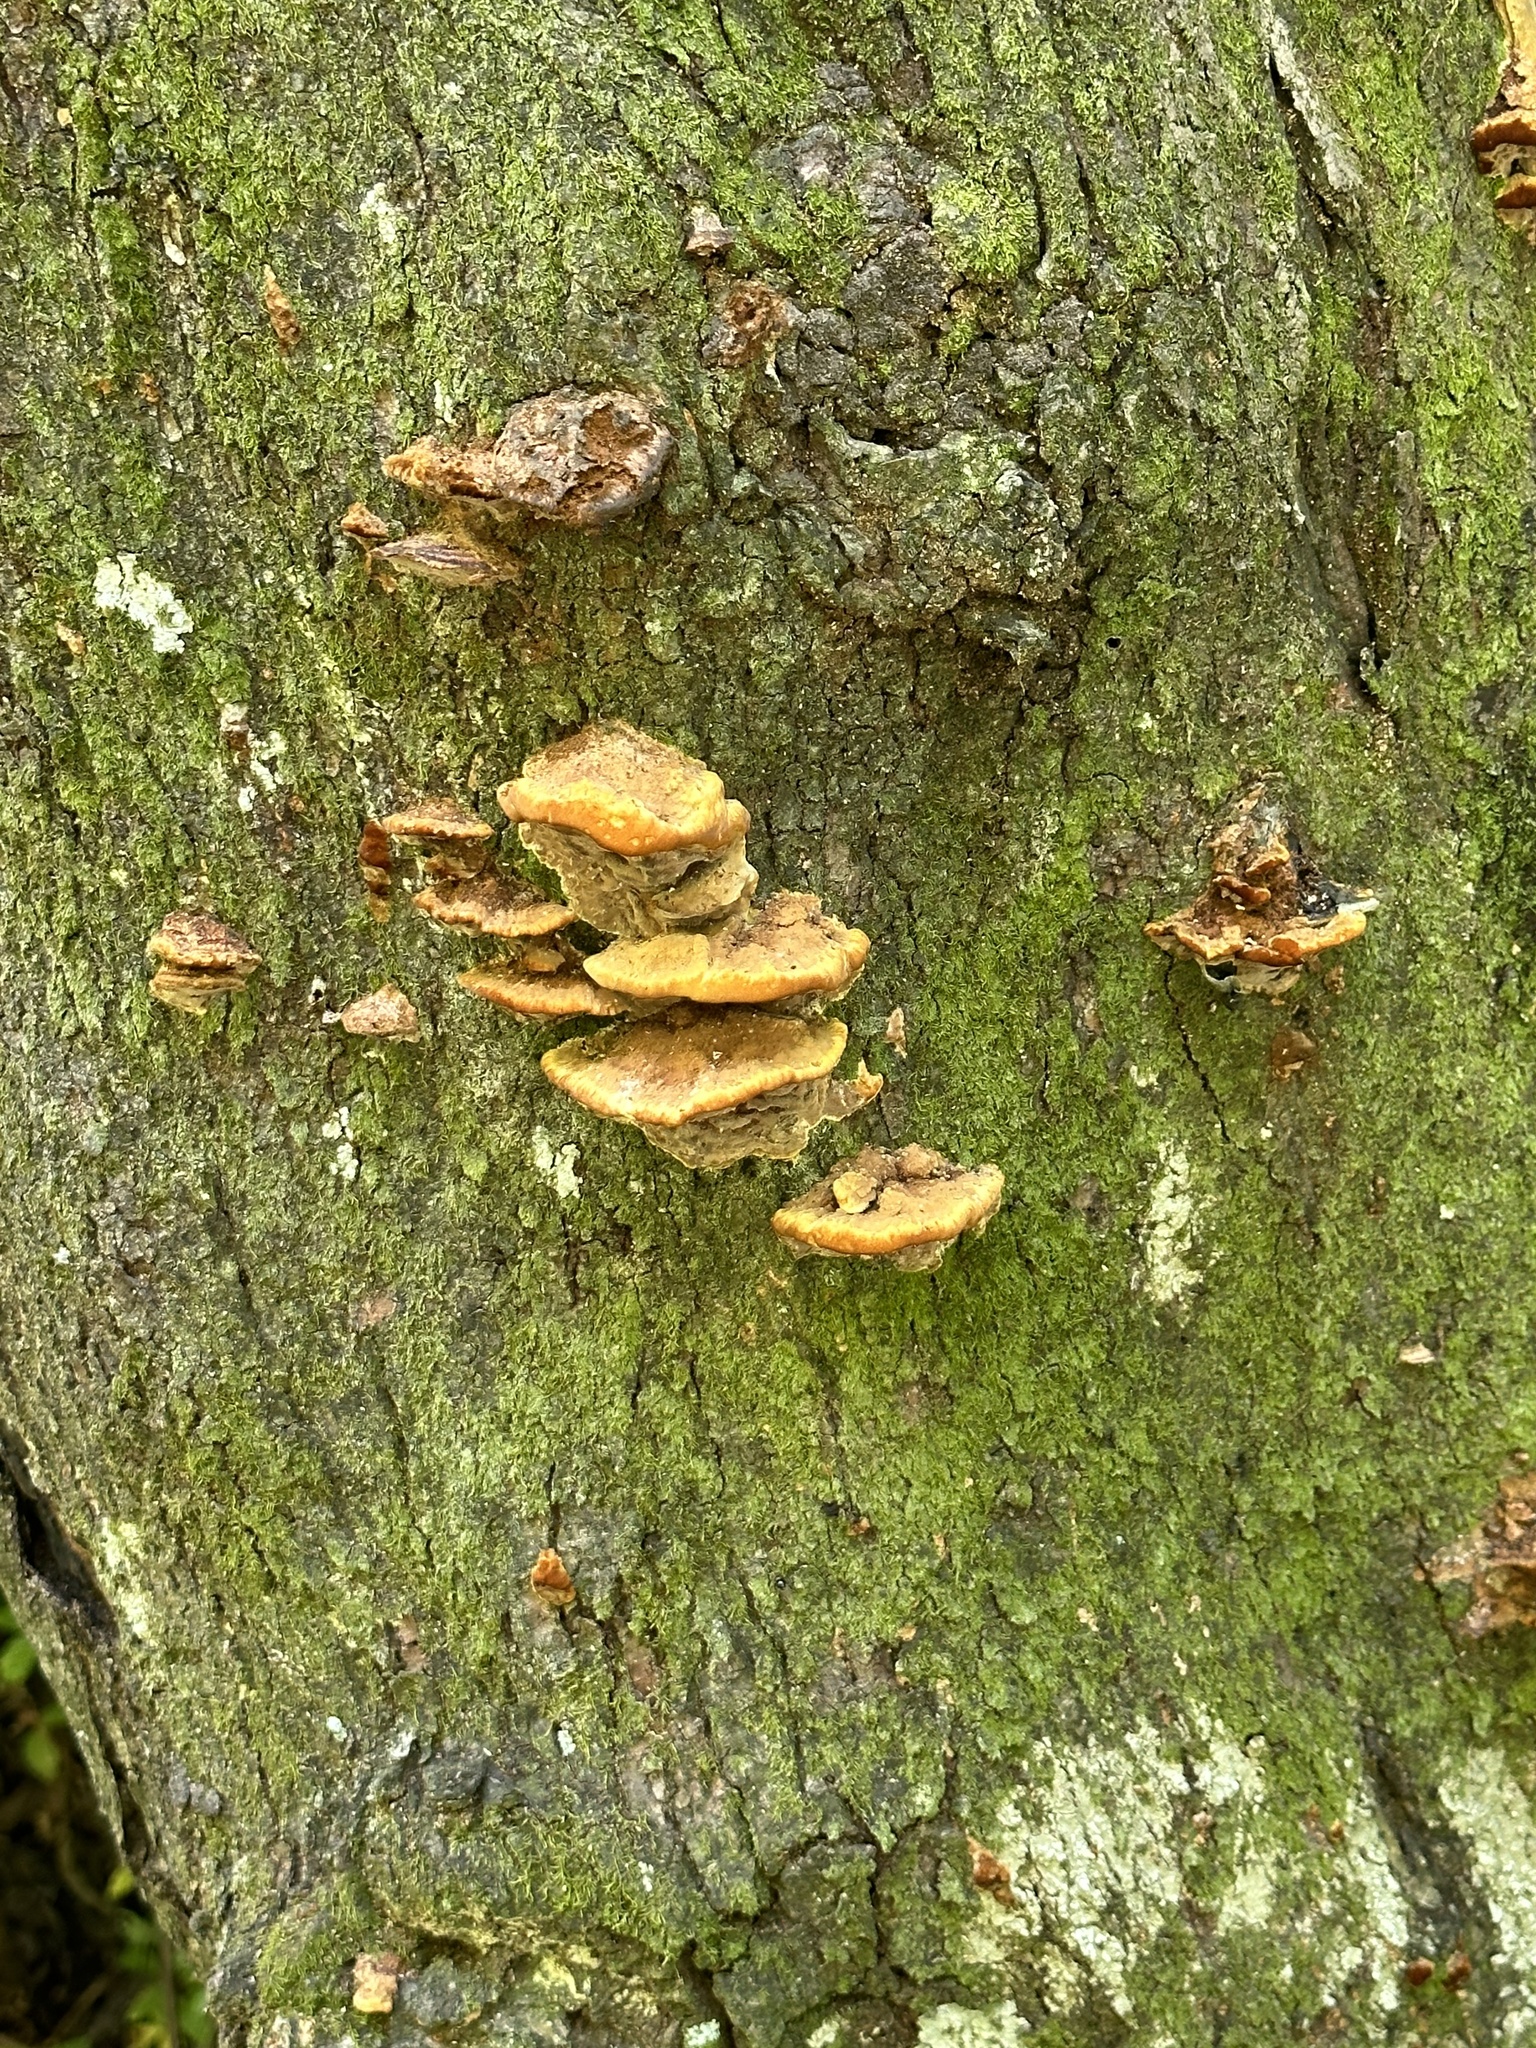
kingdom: Fungi
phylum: Basidiomycota
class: Agaricomycetes
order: Hymenochaetales
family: Hymenochaetaceae
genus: Phellinus
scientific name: Phellinus gilvus
